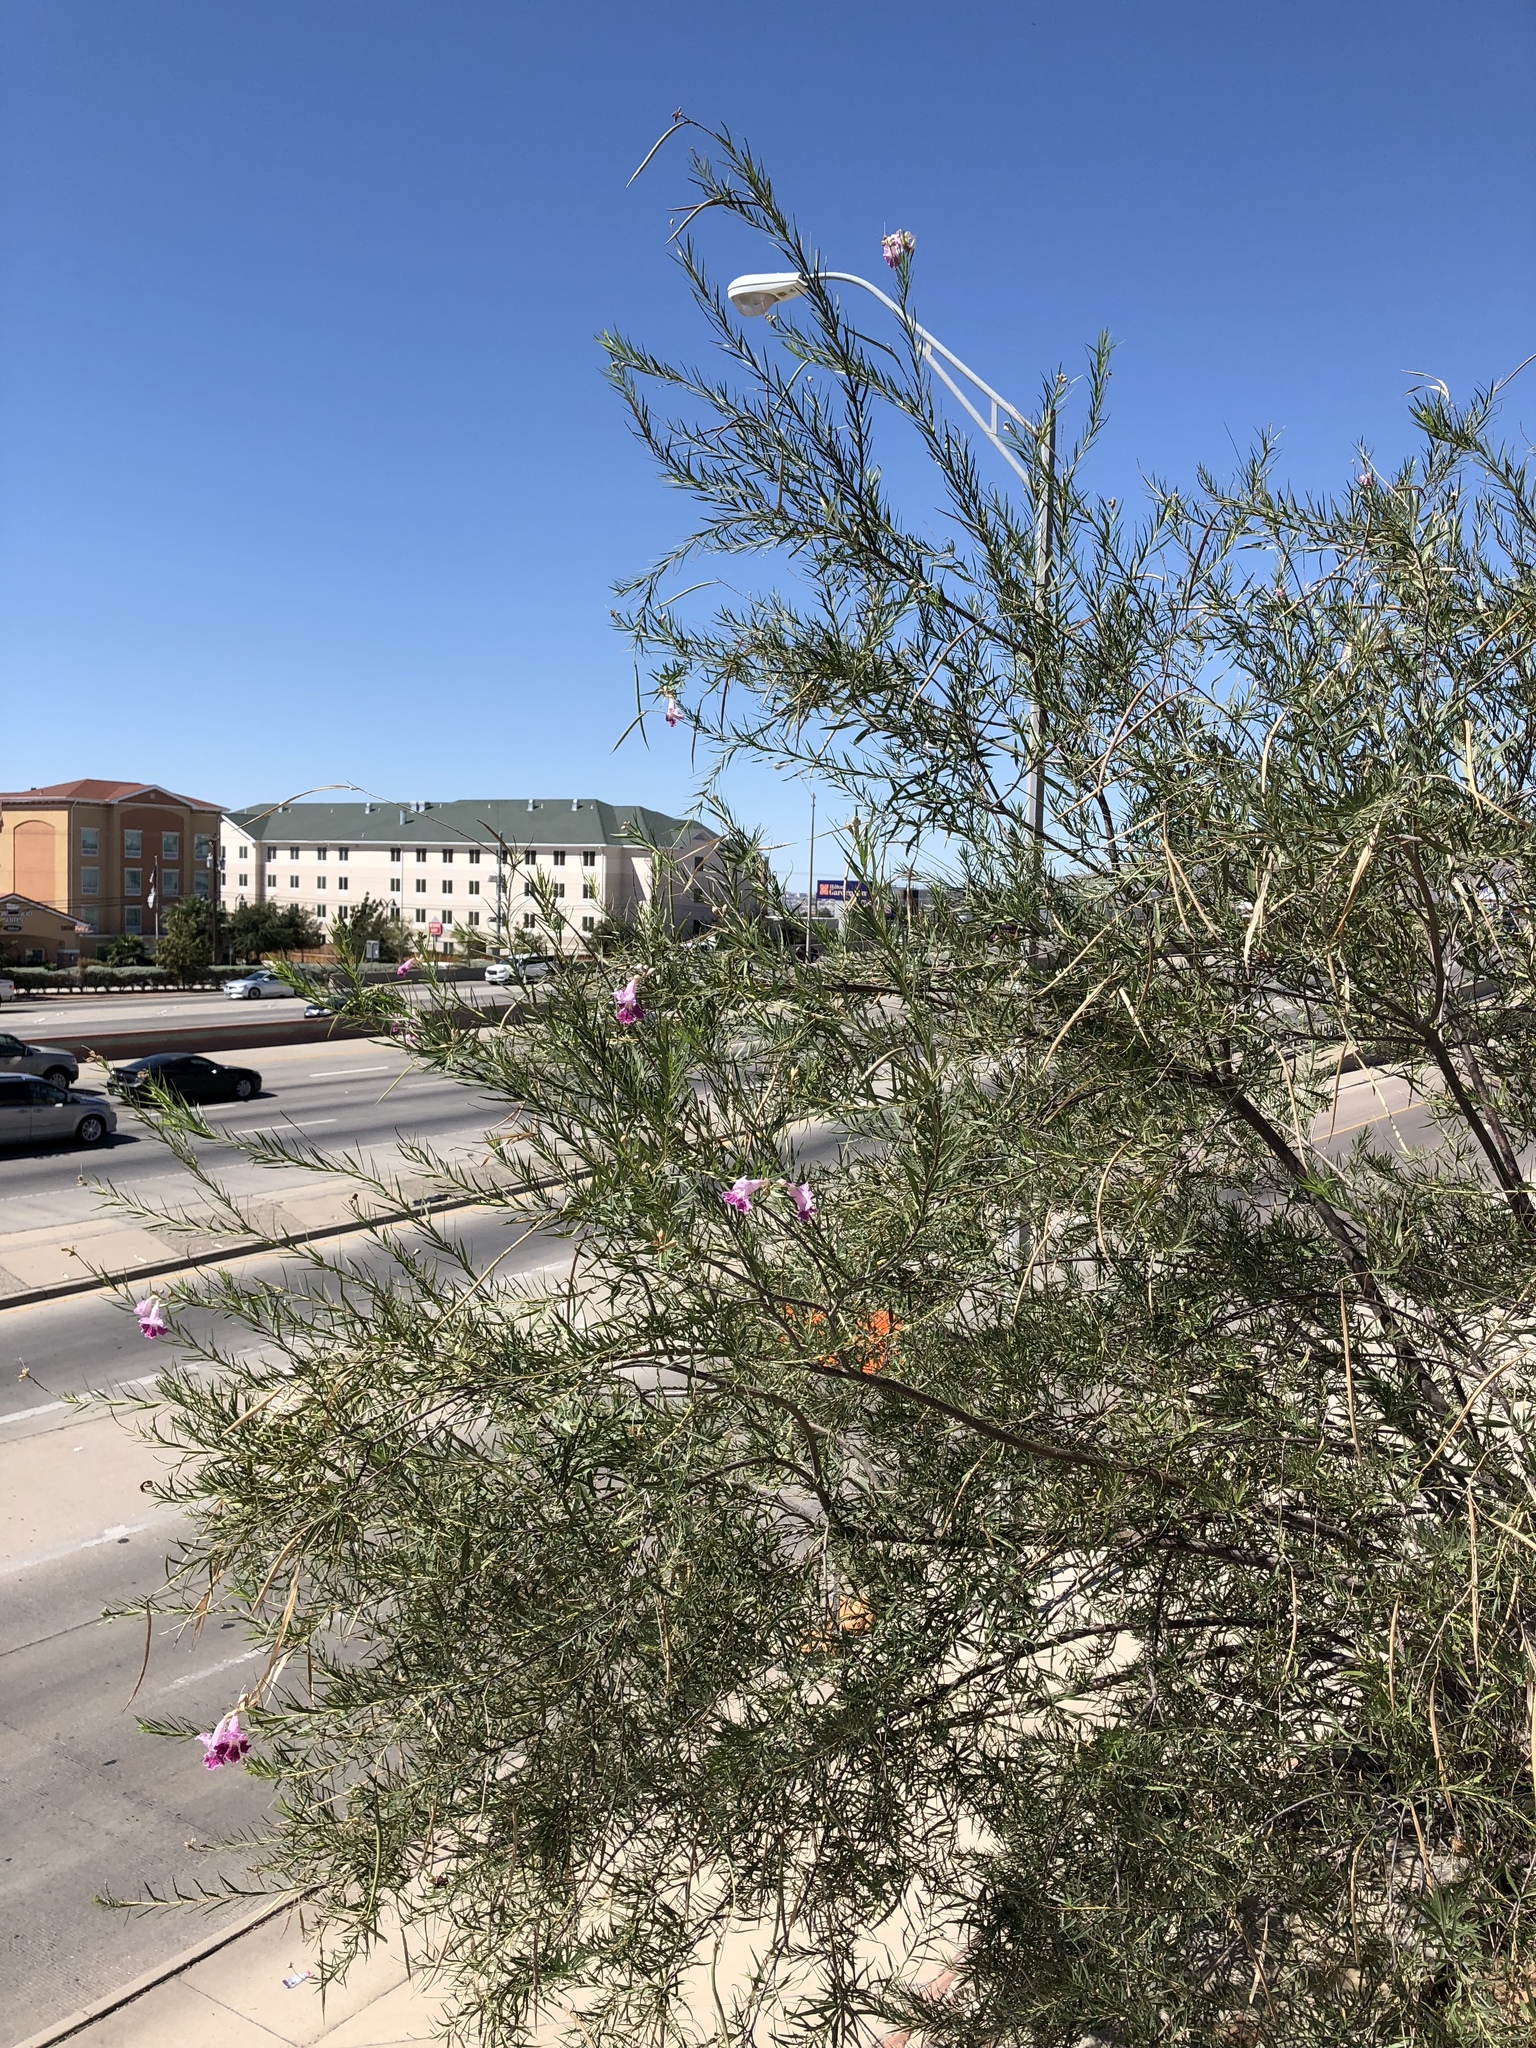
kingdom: Plantae
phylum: Tracheophyta
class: Magnoliopsida
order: Lamiales
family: Bignoniaceae
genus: Chilopsis
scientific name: Chilopsis linearis
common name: Desert-willow
